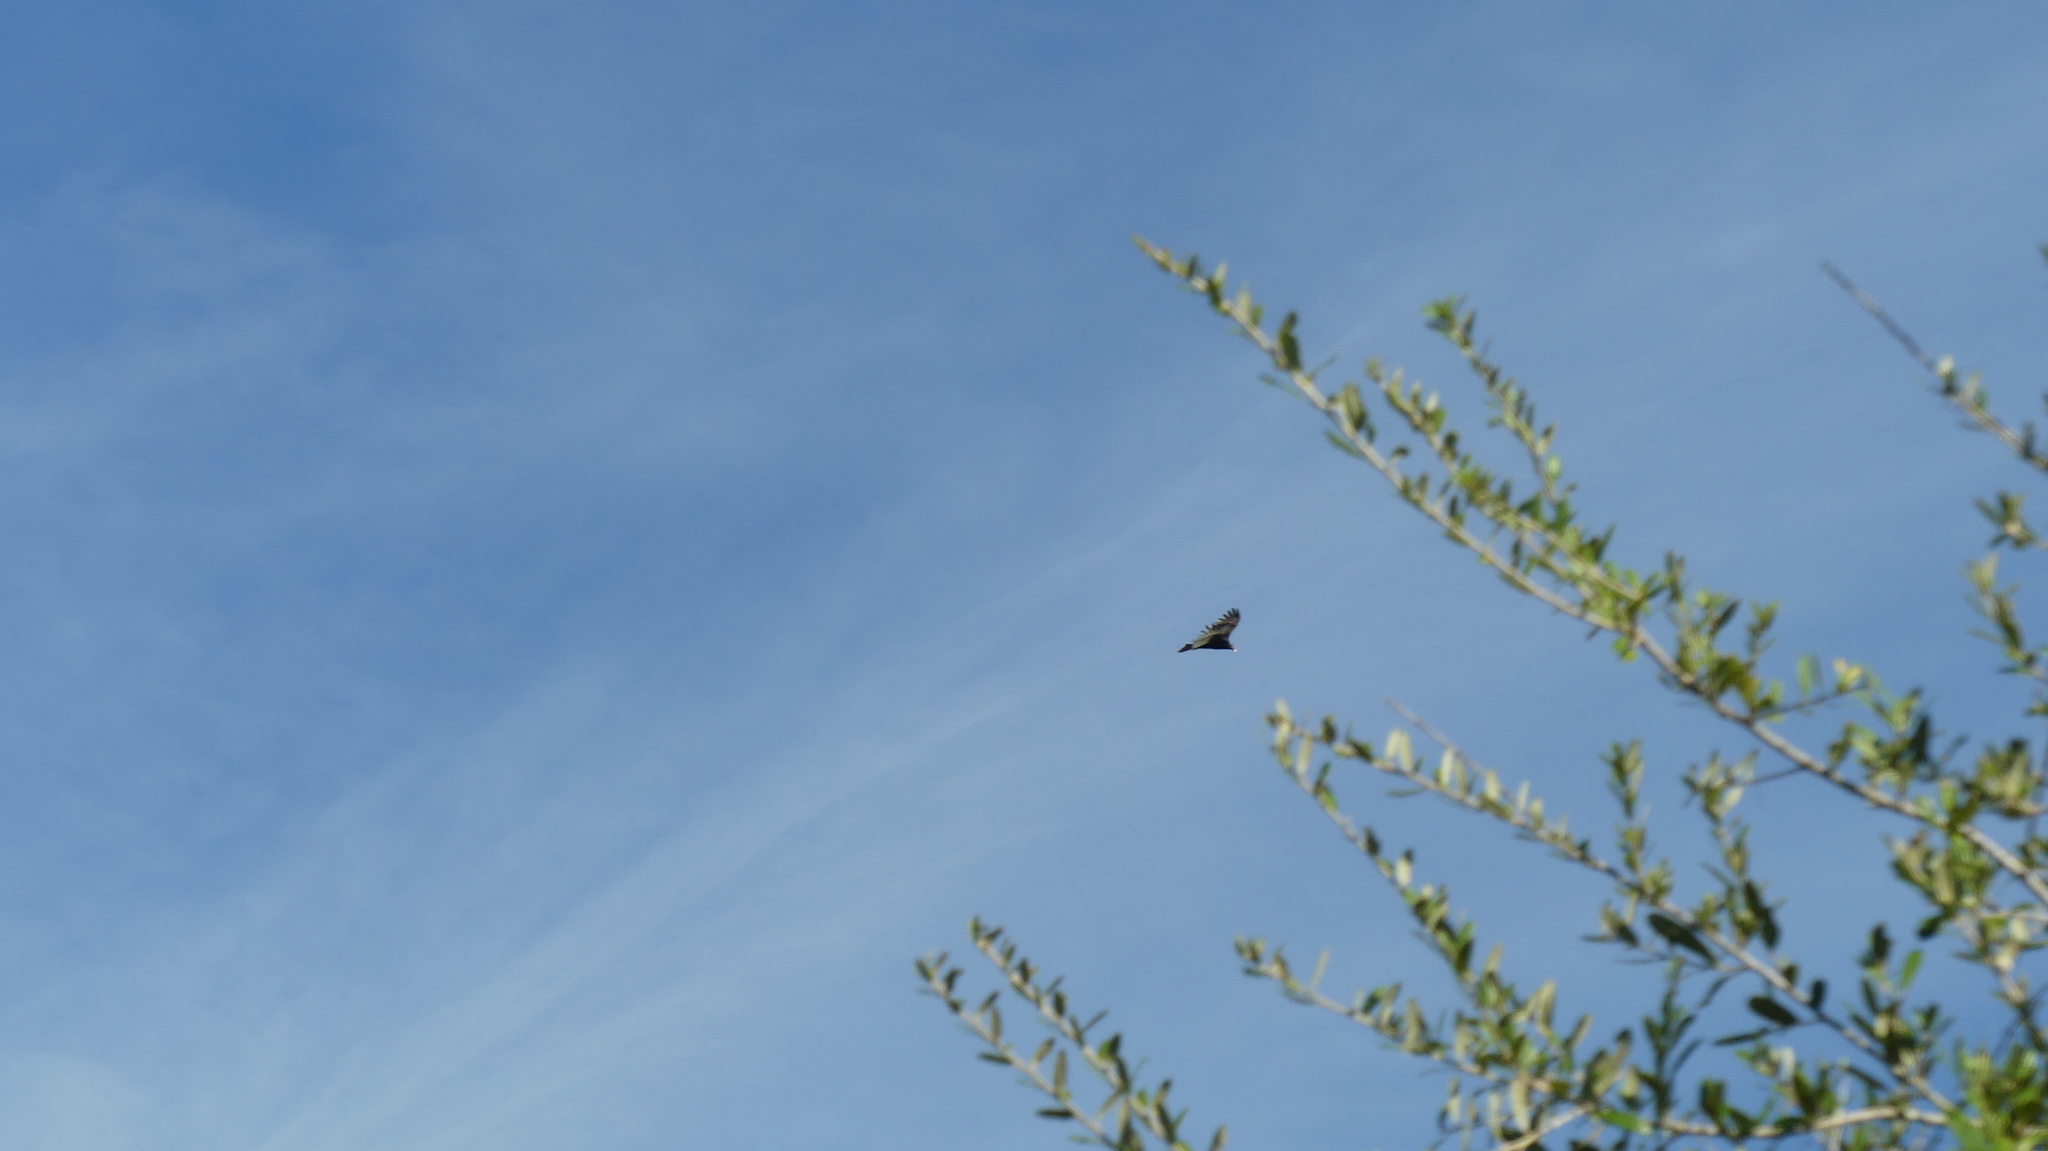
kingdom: Animalia
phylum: Chordata
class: Aves
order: Accipitriformes
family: Cathartidae
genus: Cathartes
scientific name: Cathartes aura
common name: Turkey vulture
